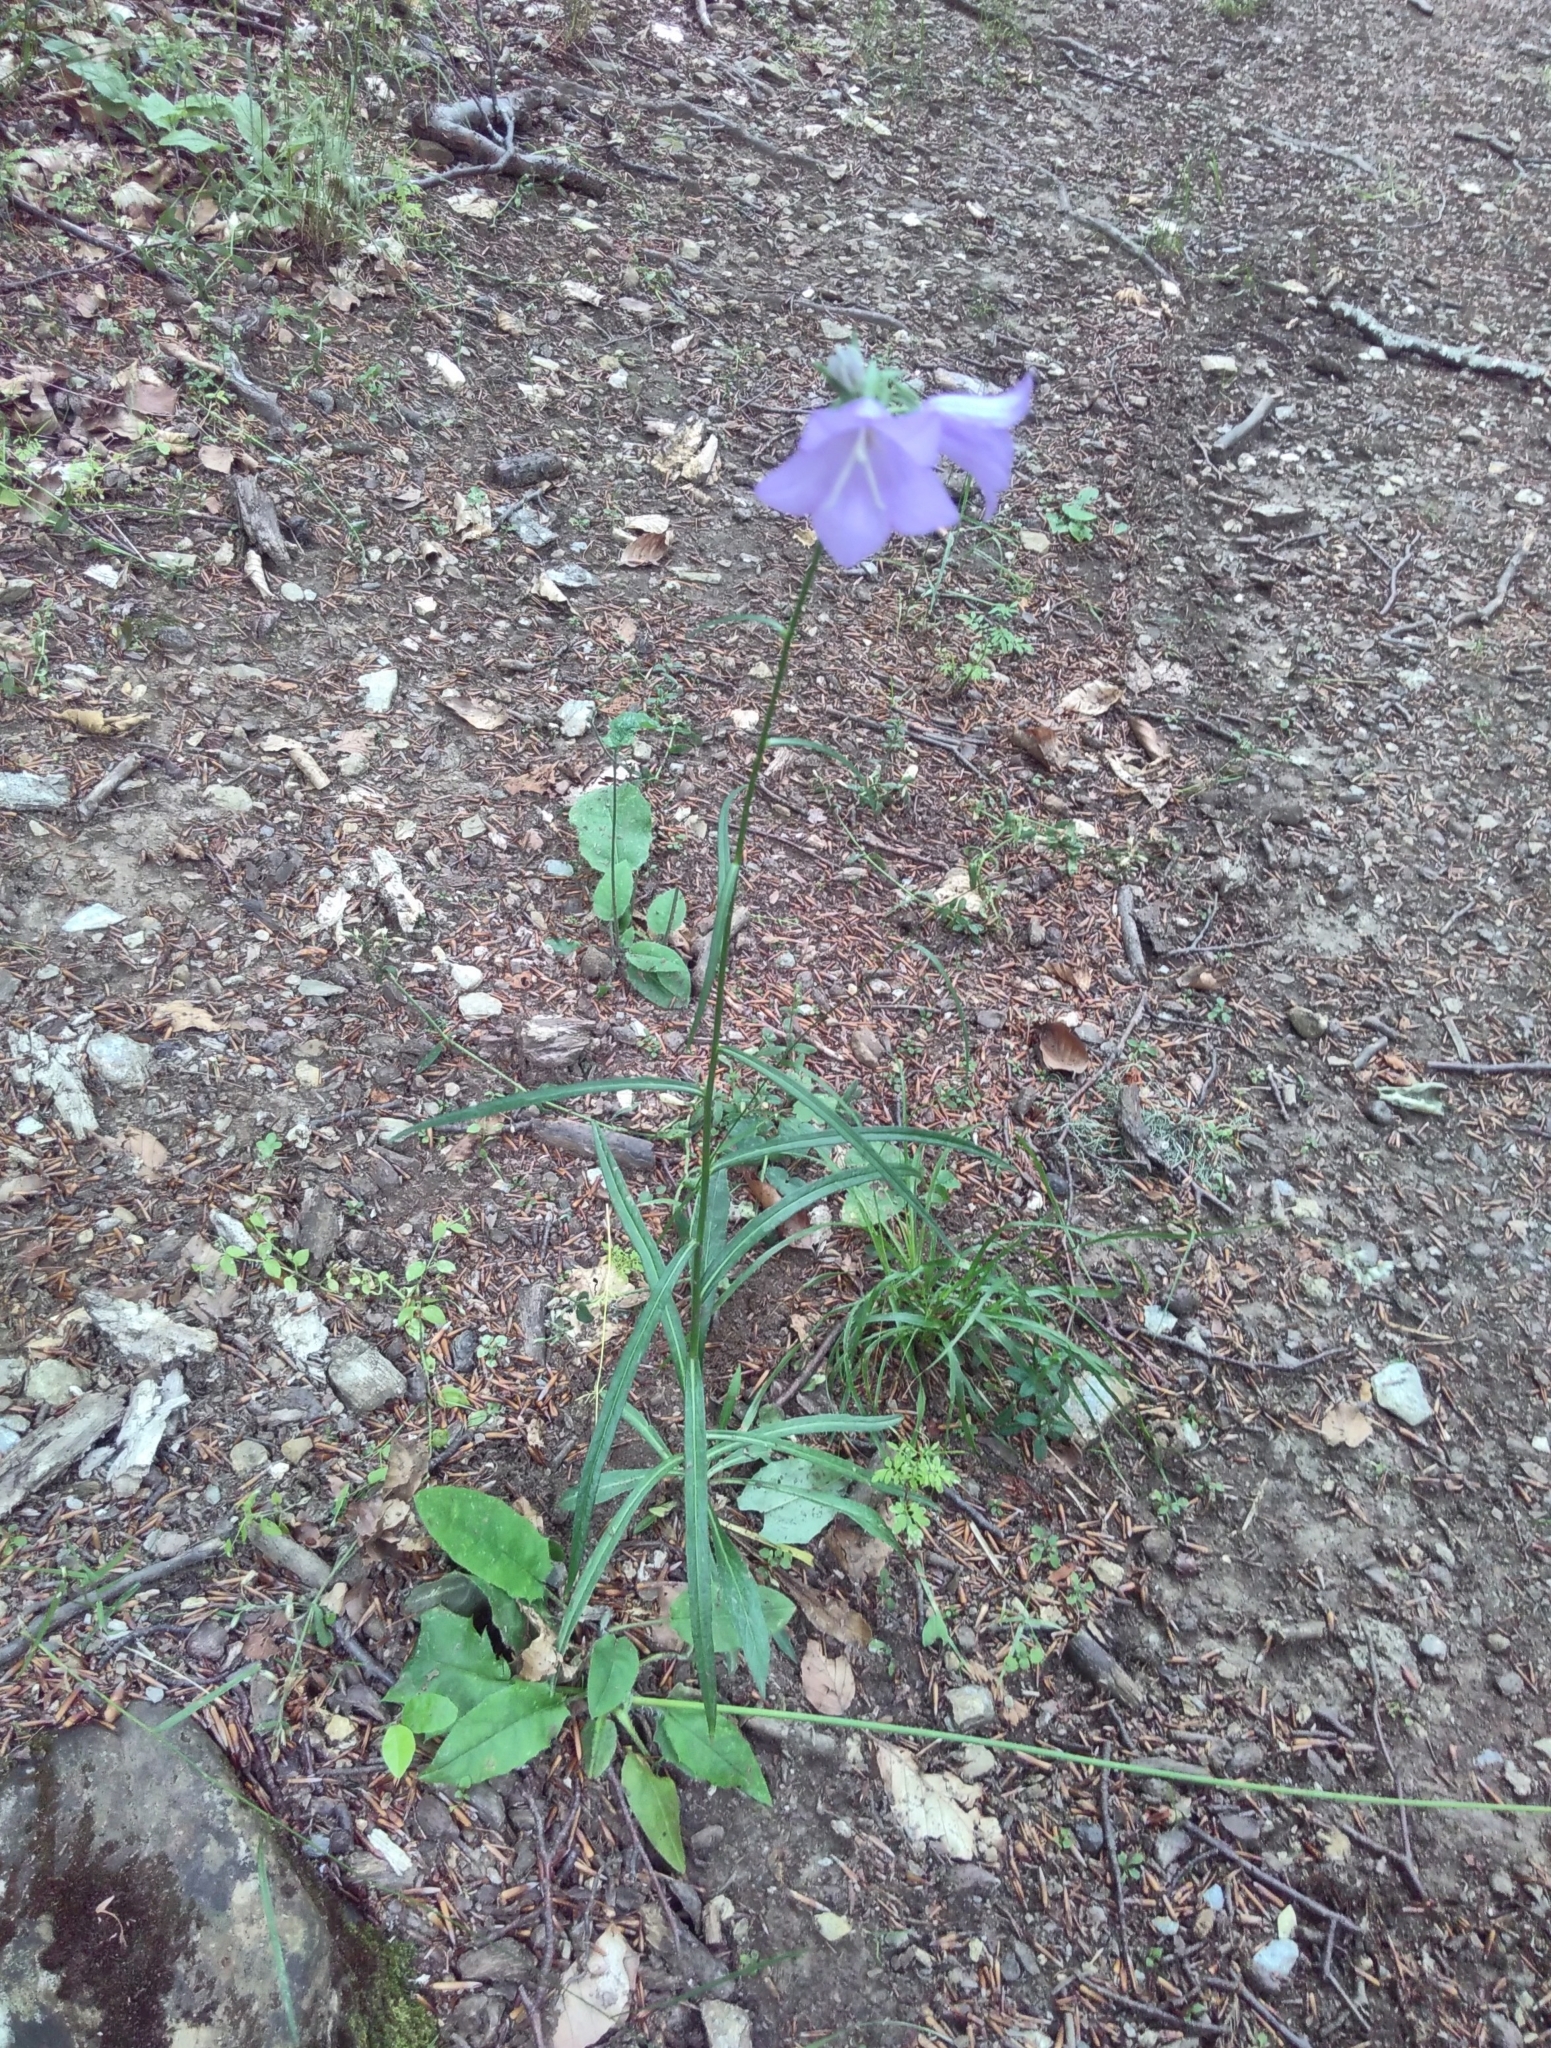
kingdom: Plantae
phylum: Tracheophyta
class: Magnoliopsida
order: Asterales
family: Campanulaceae
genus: Campanula
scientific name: Campanula persicifolia
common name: Peach-leaved bellflower
